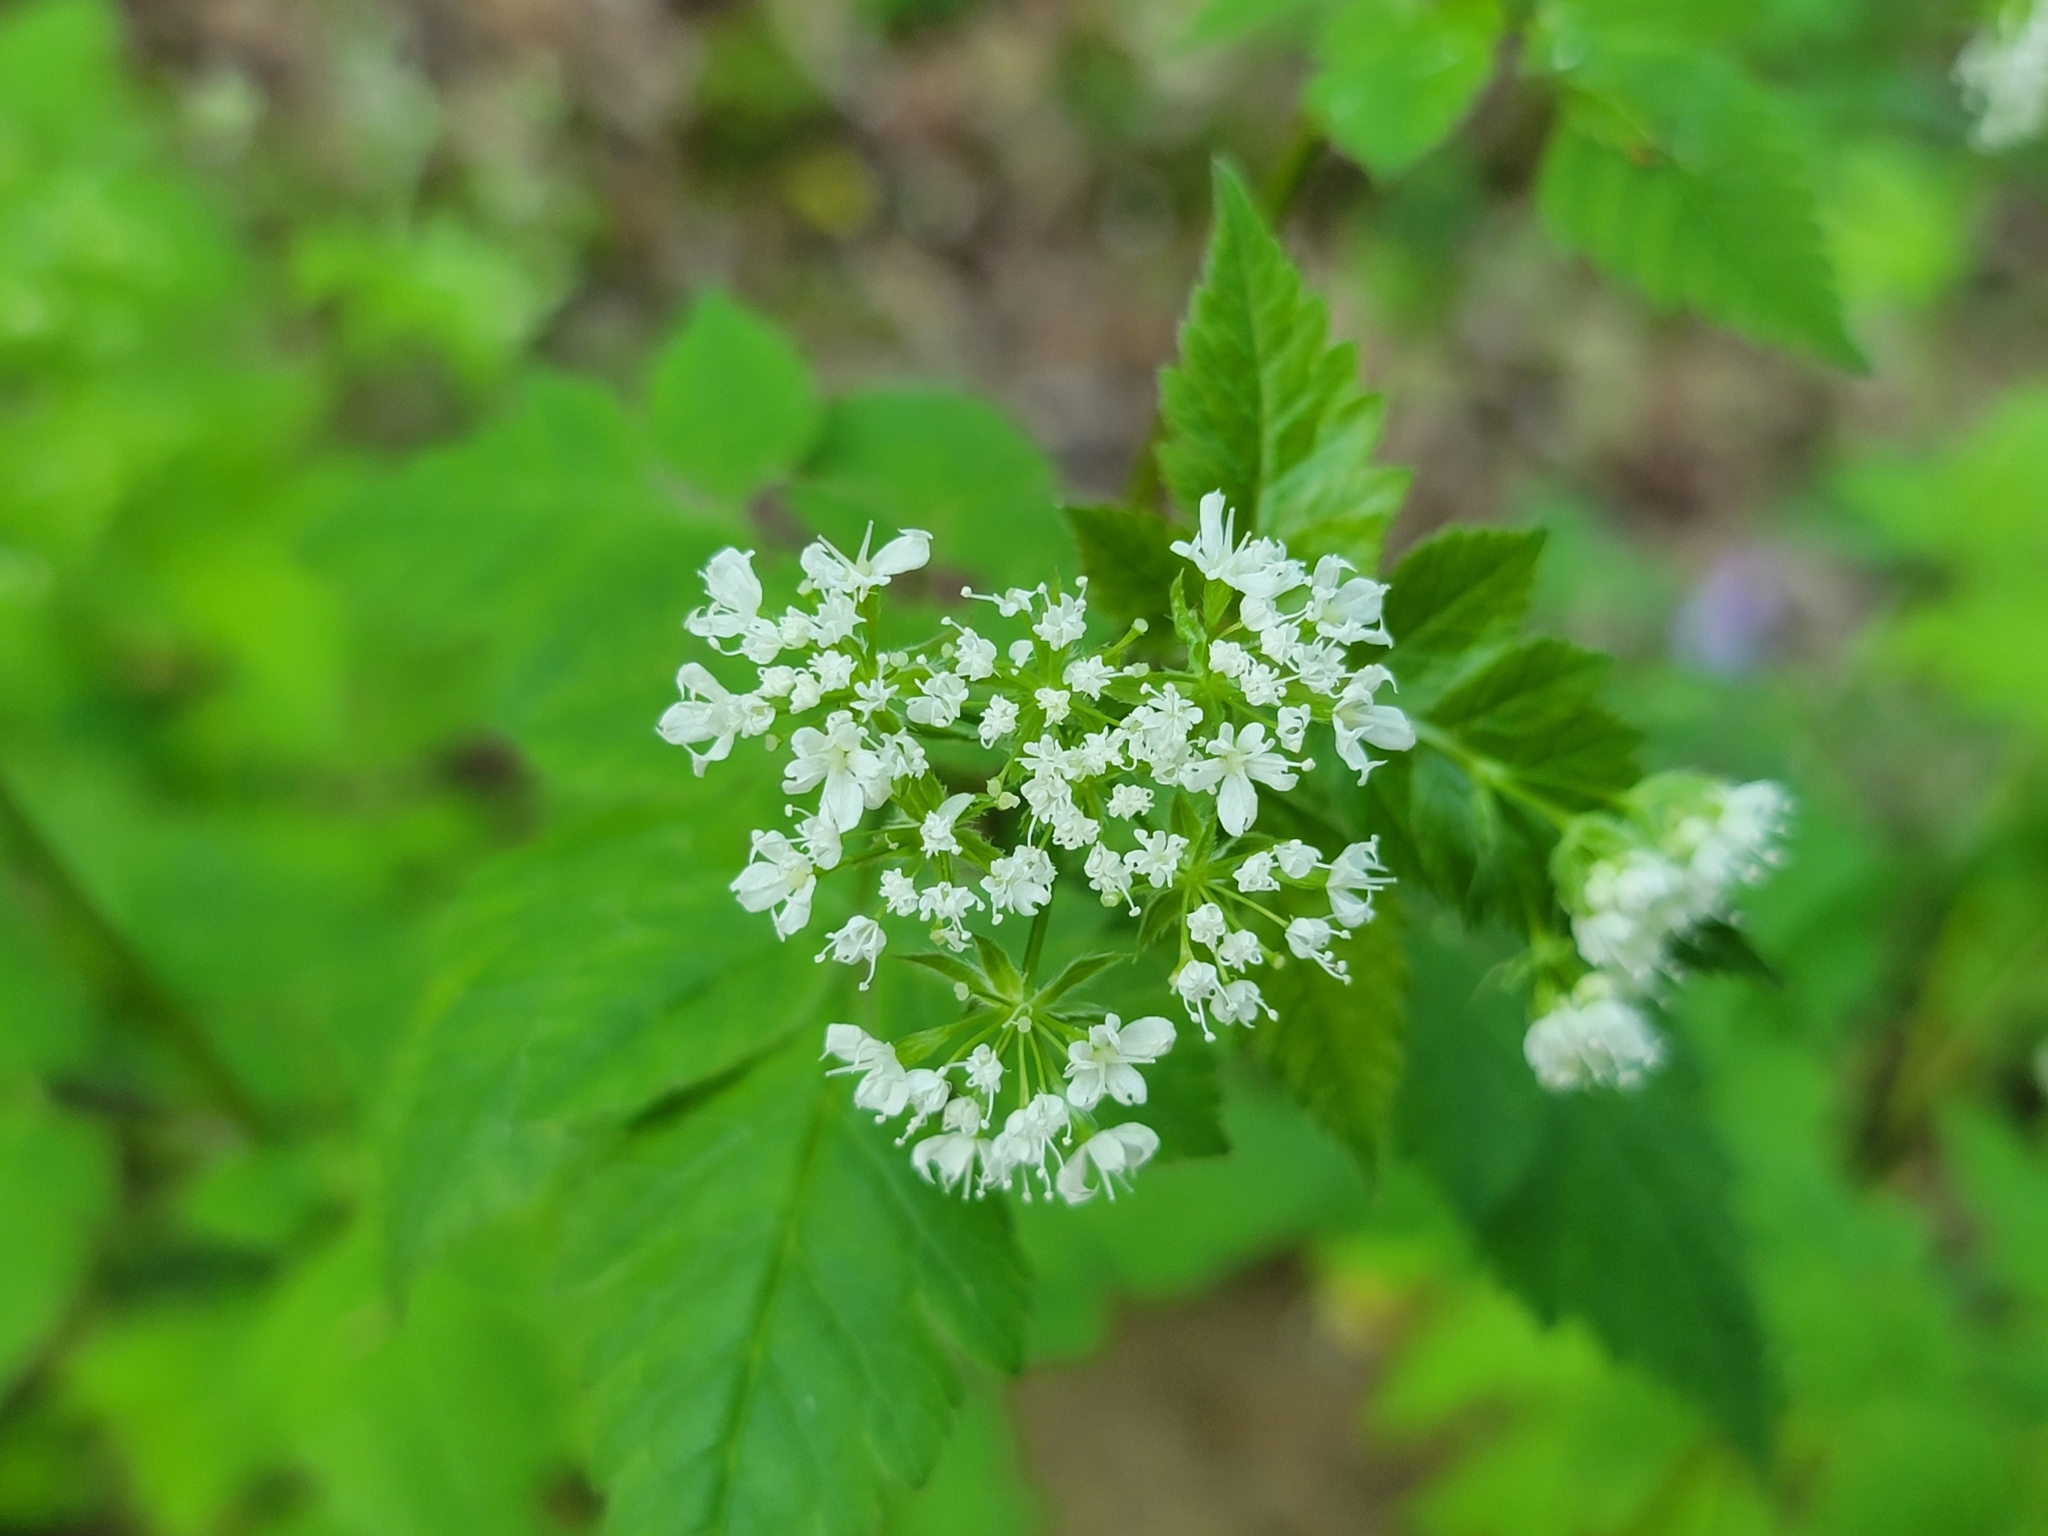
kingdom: Plantae
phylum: Tracheophyta
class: Magnoliopsida
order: Apiales
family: Apiaceae
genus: Osmorhiza
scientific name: Osmorhiza longistylis
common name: Smooth sweet cicely
